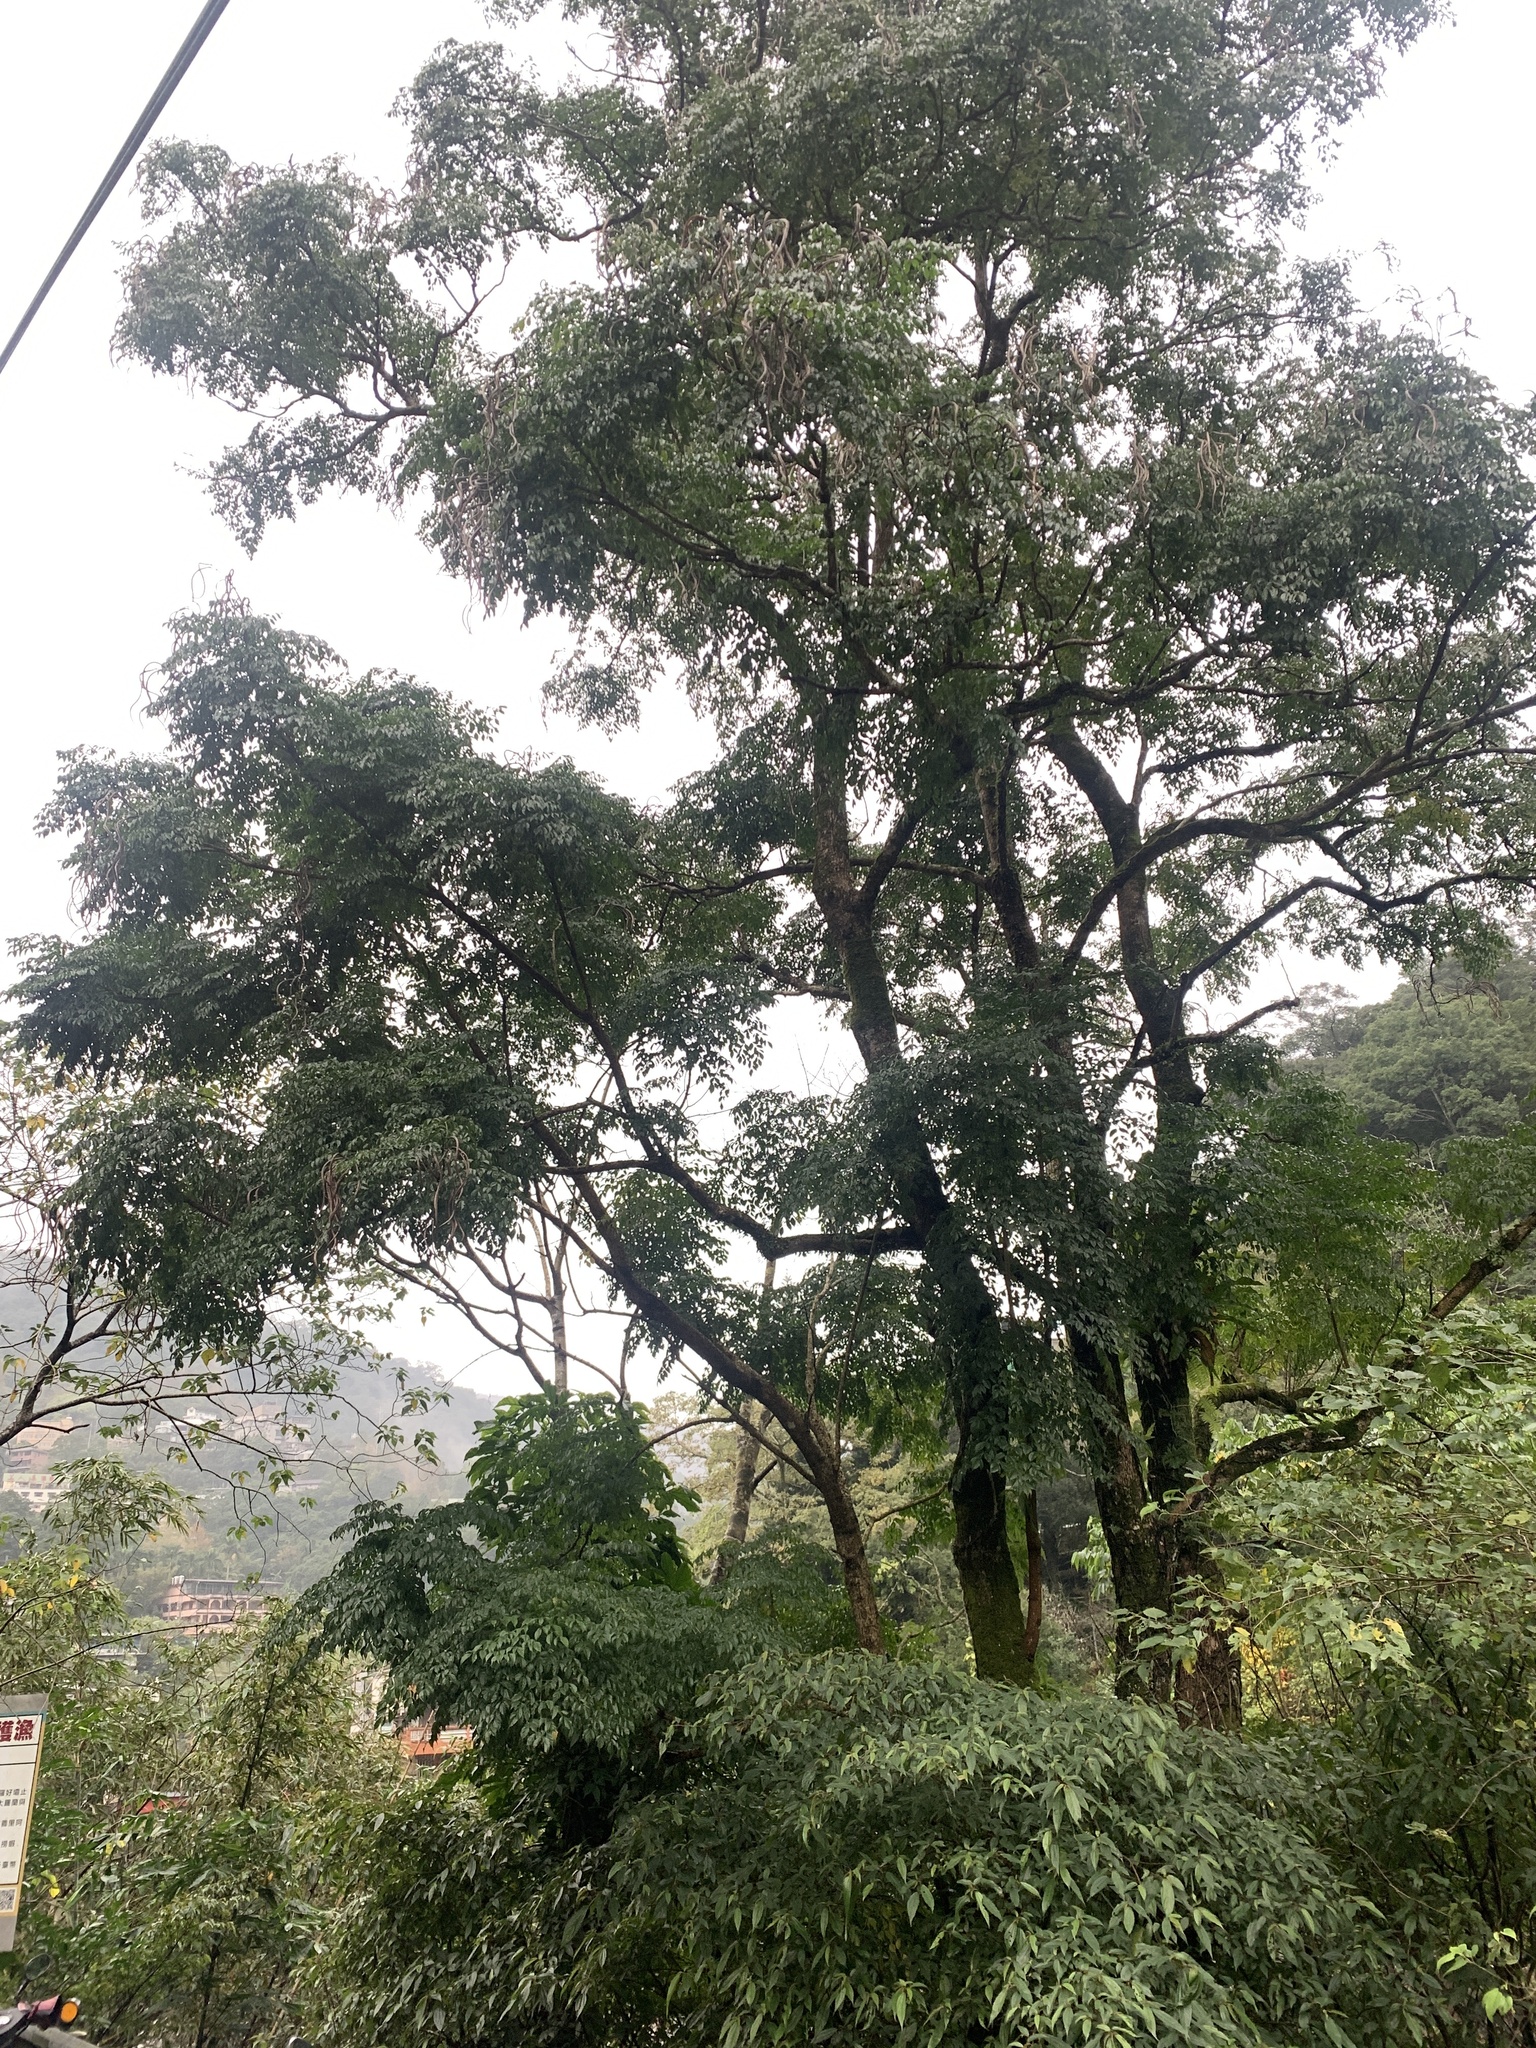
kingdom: Plantae
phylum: Tracheophyta
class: Magnoliopsida
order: Lamiales
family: Bignoniaceae
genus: Radermachera
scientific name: Radermachera sinica
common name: China doll plant
